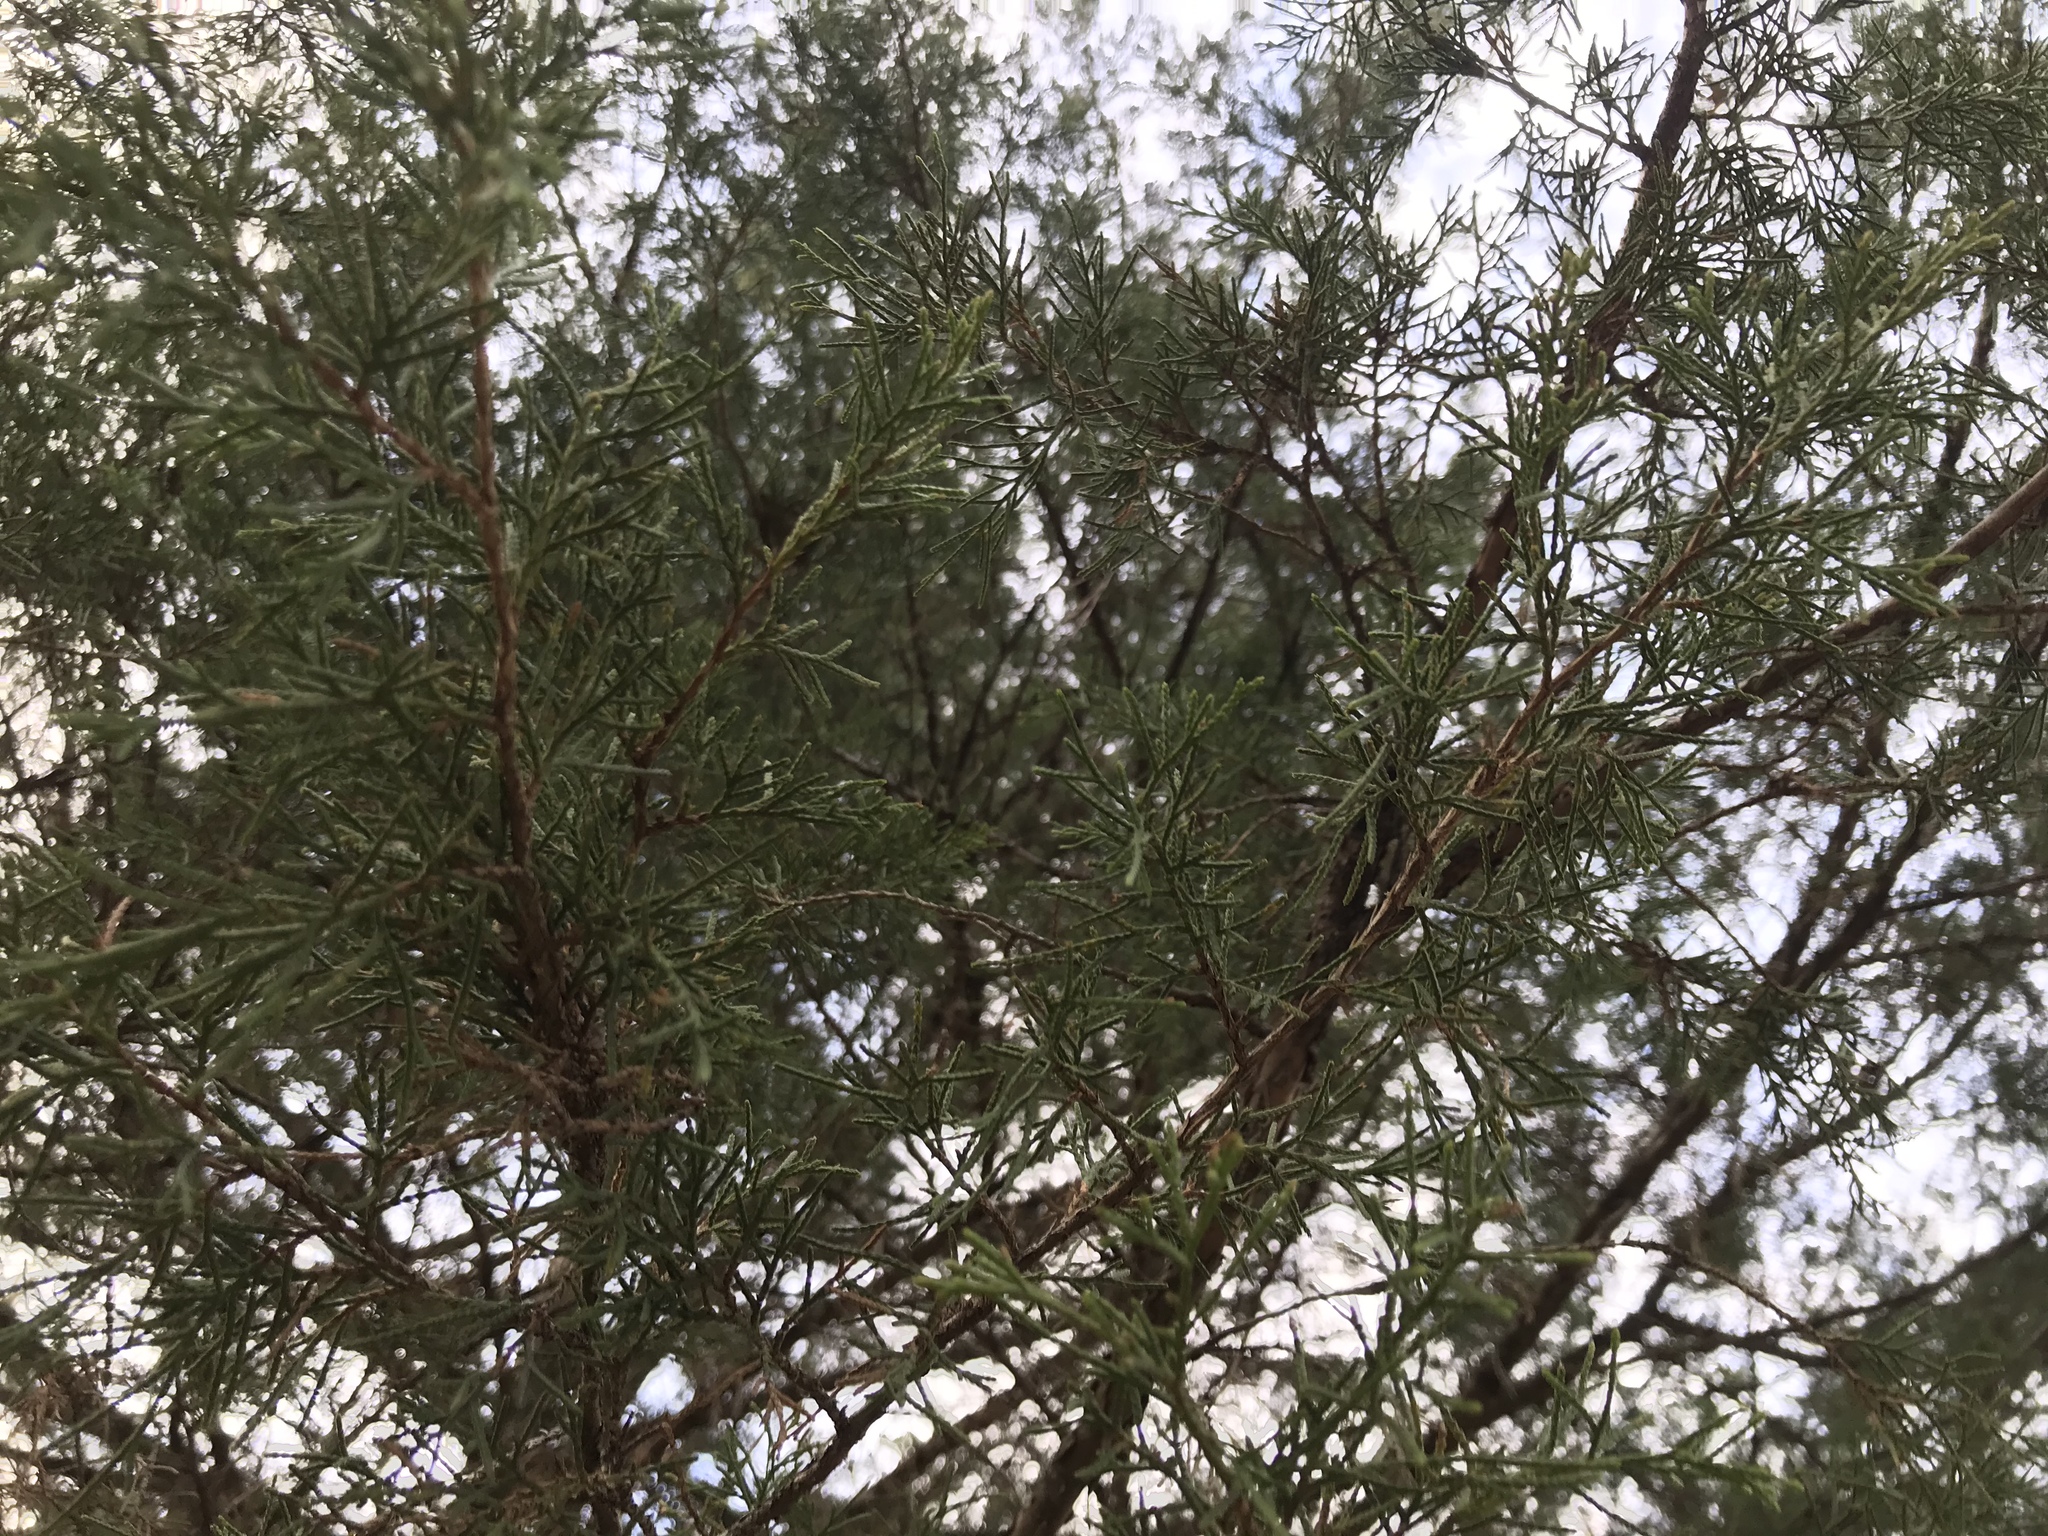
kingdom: Plantae
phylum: Tracheophyta
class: Pinopsida
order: Pinales
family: Cupressaceae
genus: Juniperus
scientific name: Juniperus virginiana
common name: Red juniper
